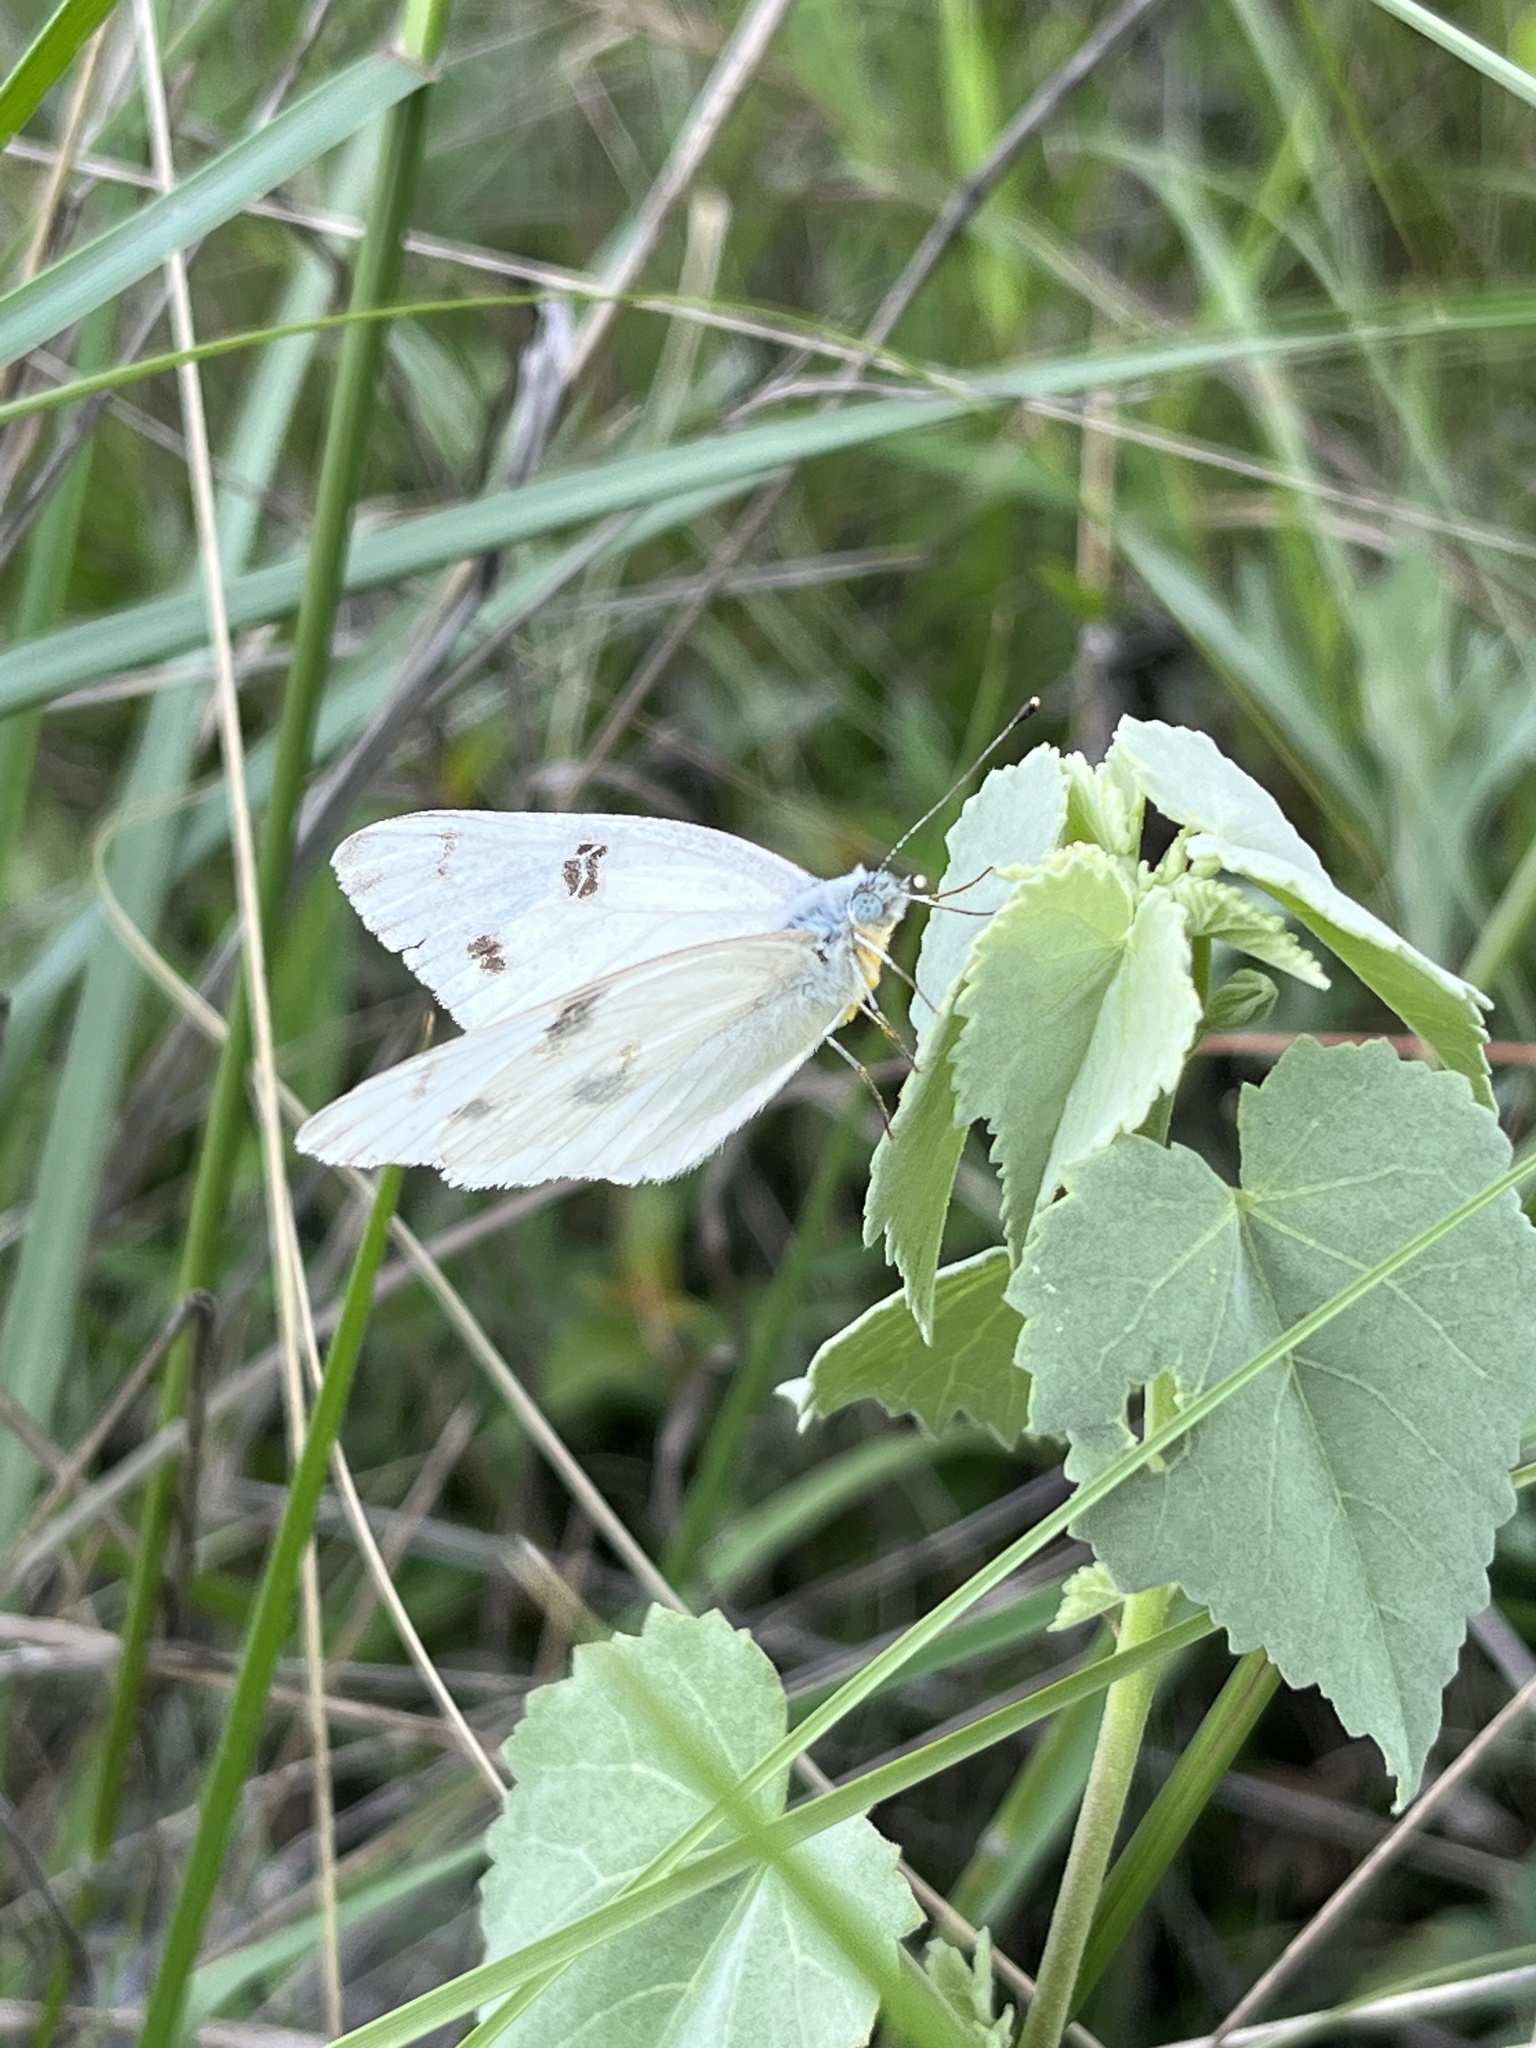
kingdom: Animalia
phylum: Arthropoda
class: Insecta
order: Lepidoptera
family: Pieridae
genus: Pontia
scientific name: Pontia protodice
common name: Checkered white
